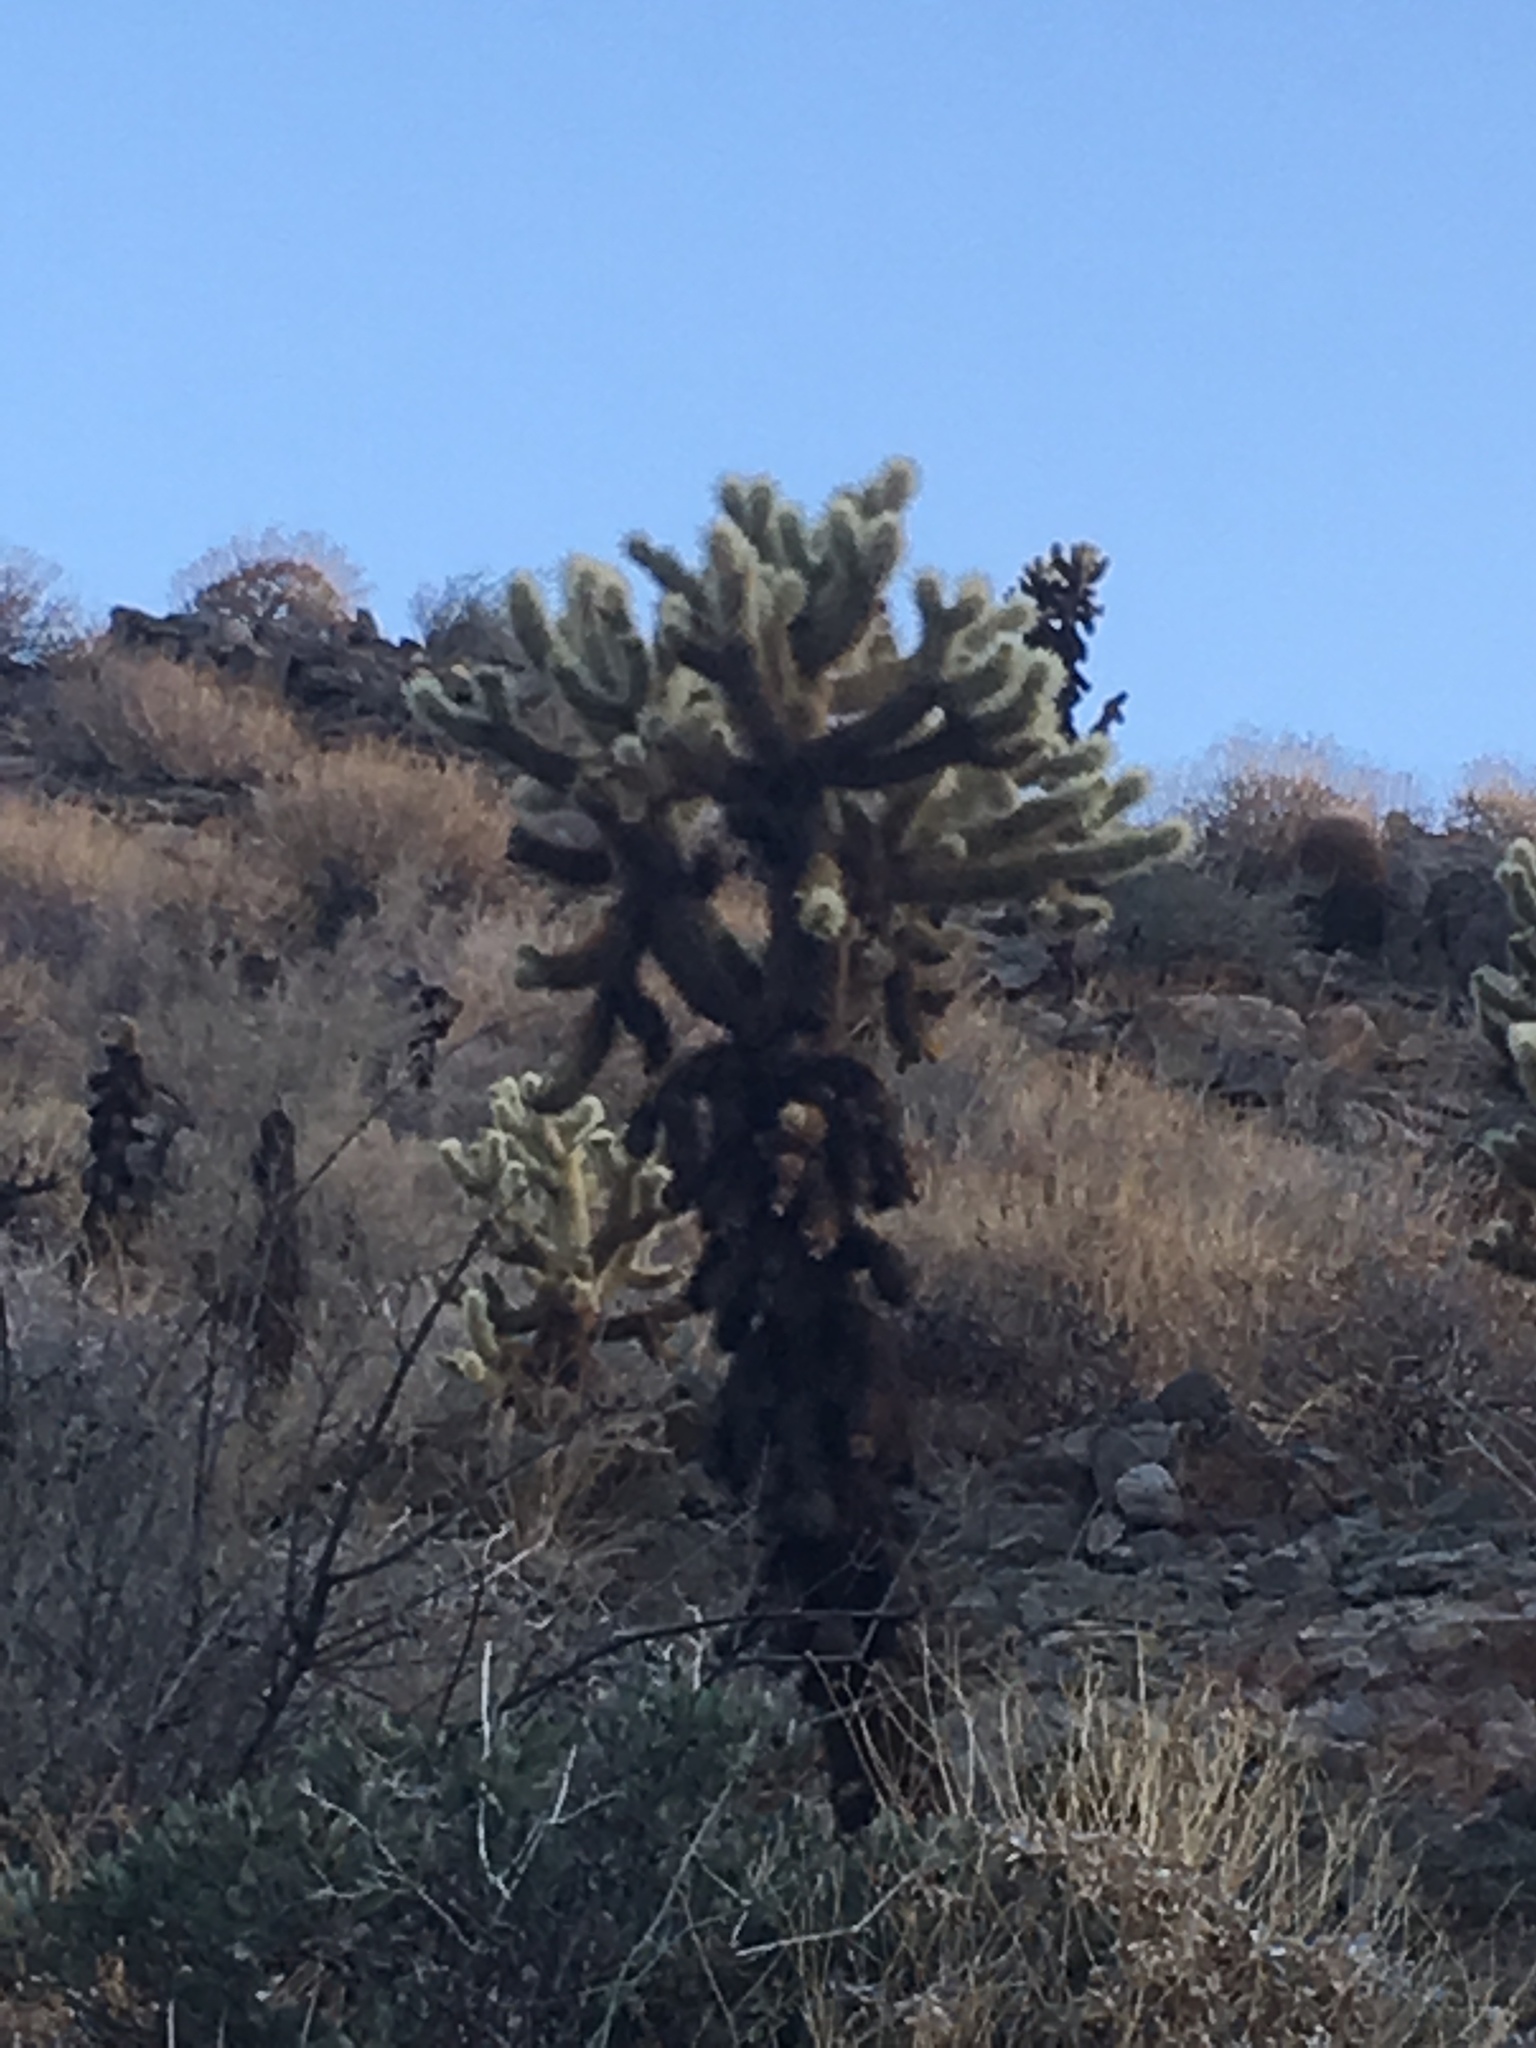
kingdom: Plantae
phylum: Tracheophyta
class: Magnoliopsida
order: Caryophyllales
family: Cactaceae
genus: Cylindropuntia
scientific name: Cylindropuntia fosbergii
